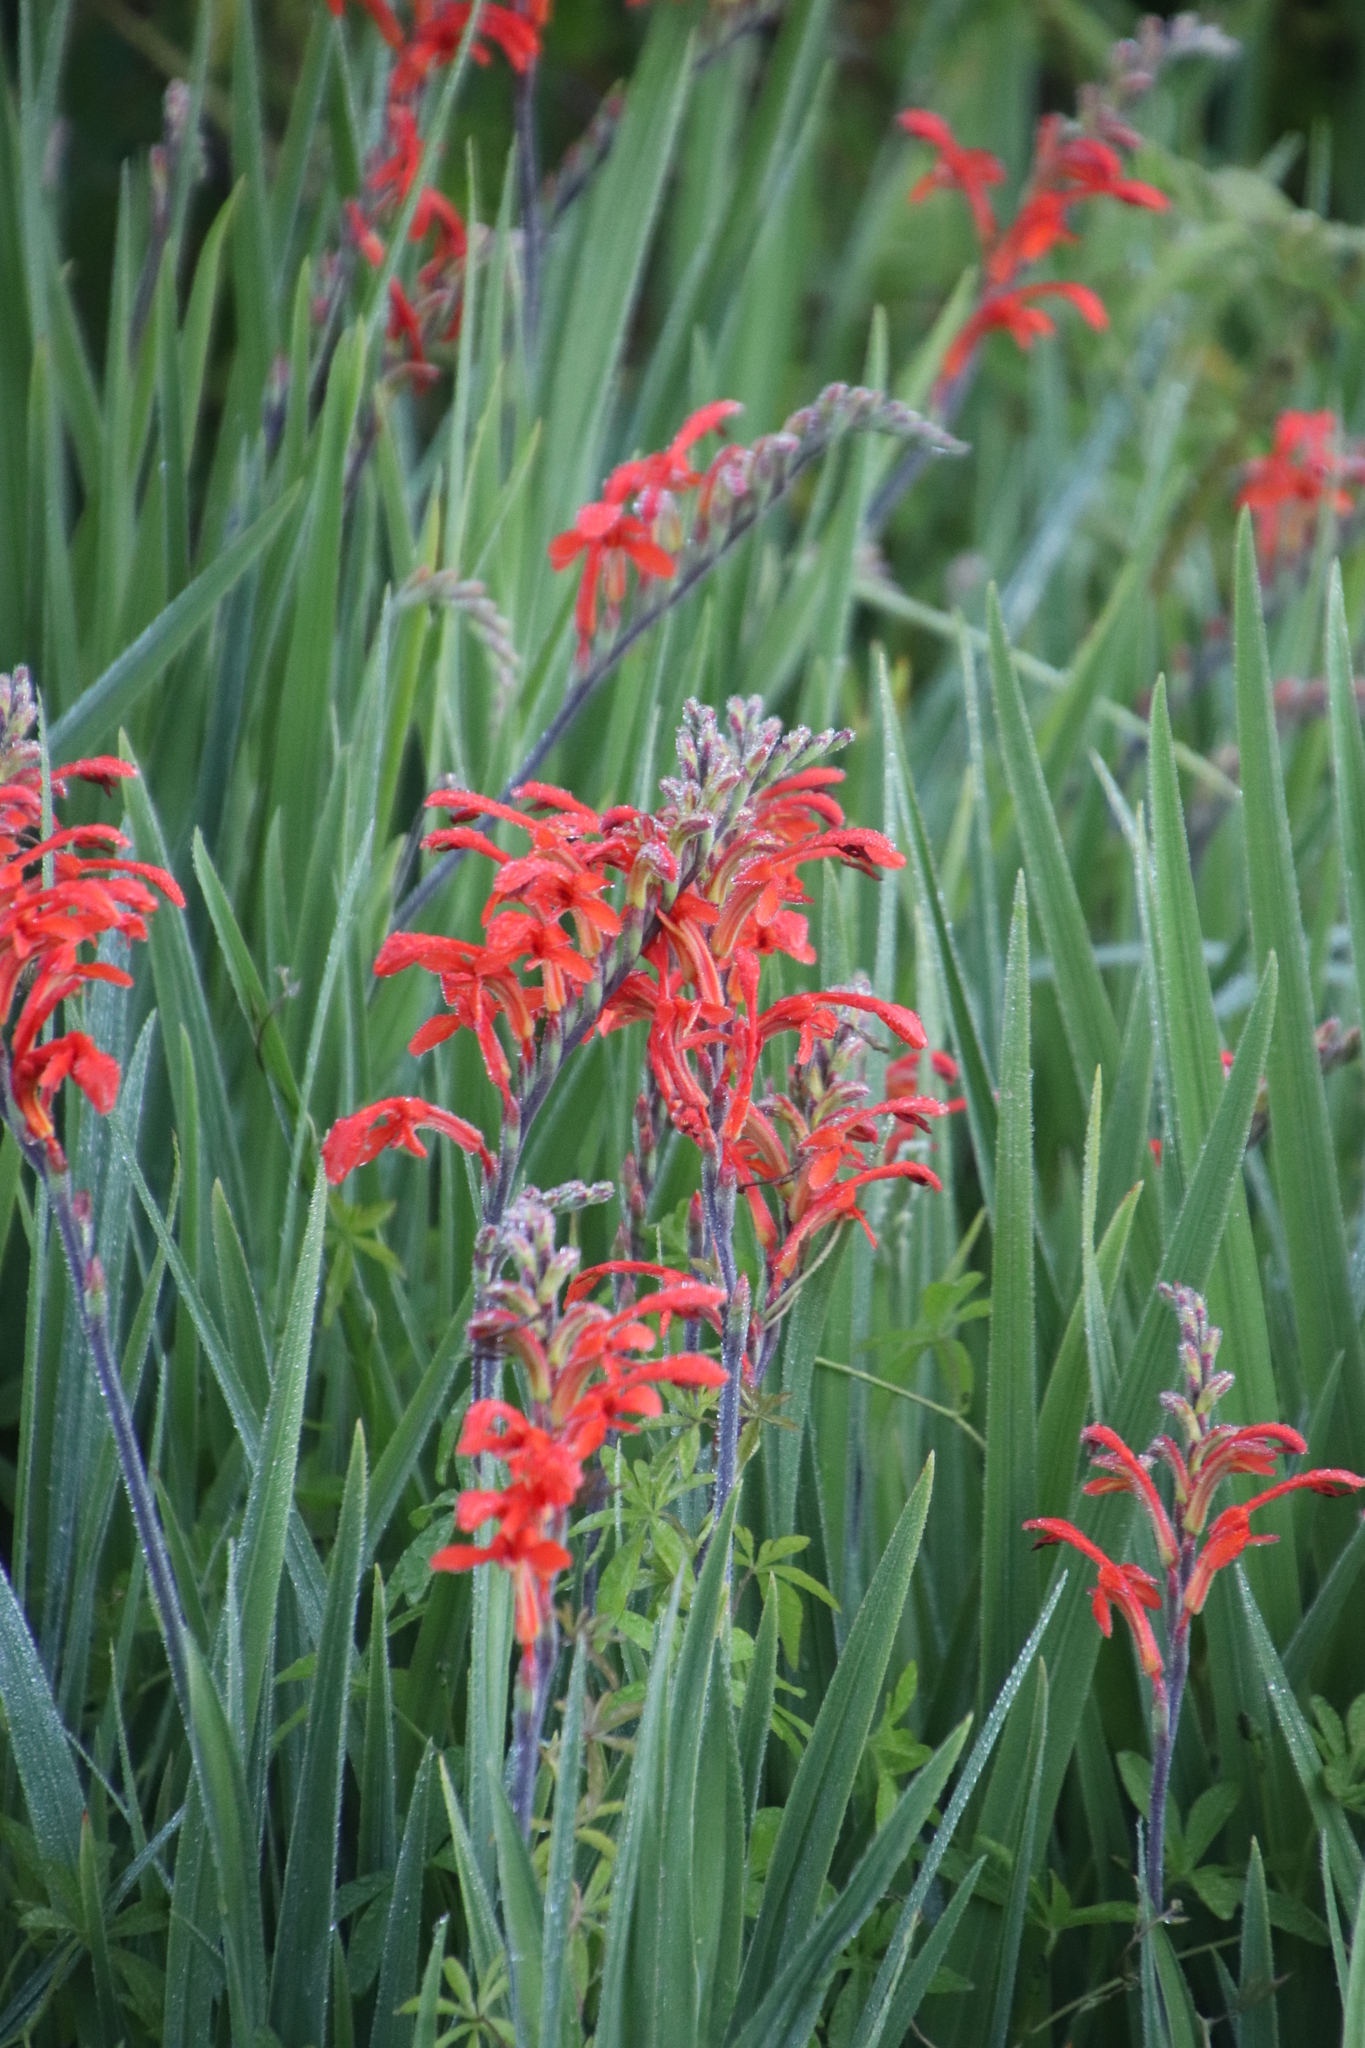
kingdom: Plantae
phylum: Tracheophyta
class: Liliopsida
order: Asparagales
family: Iridaceae
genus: Chasmanthe
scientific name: Chasmanthe aethiopica
